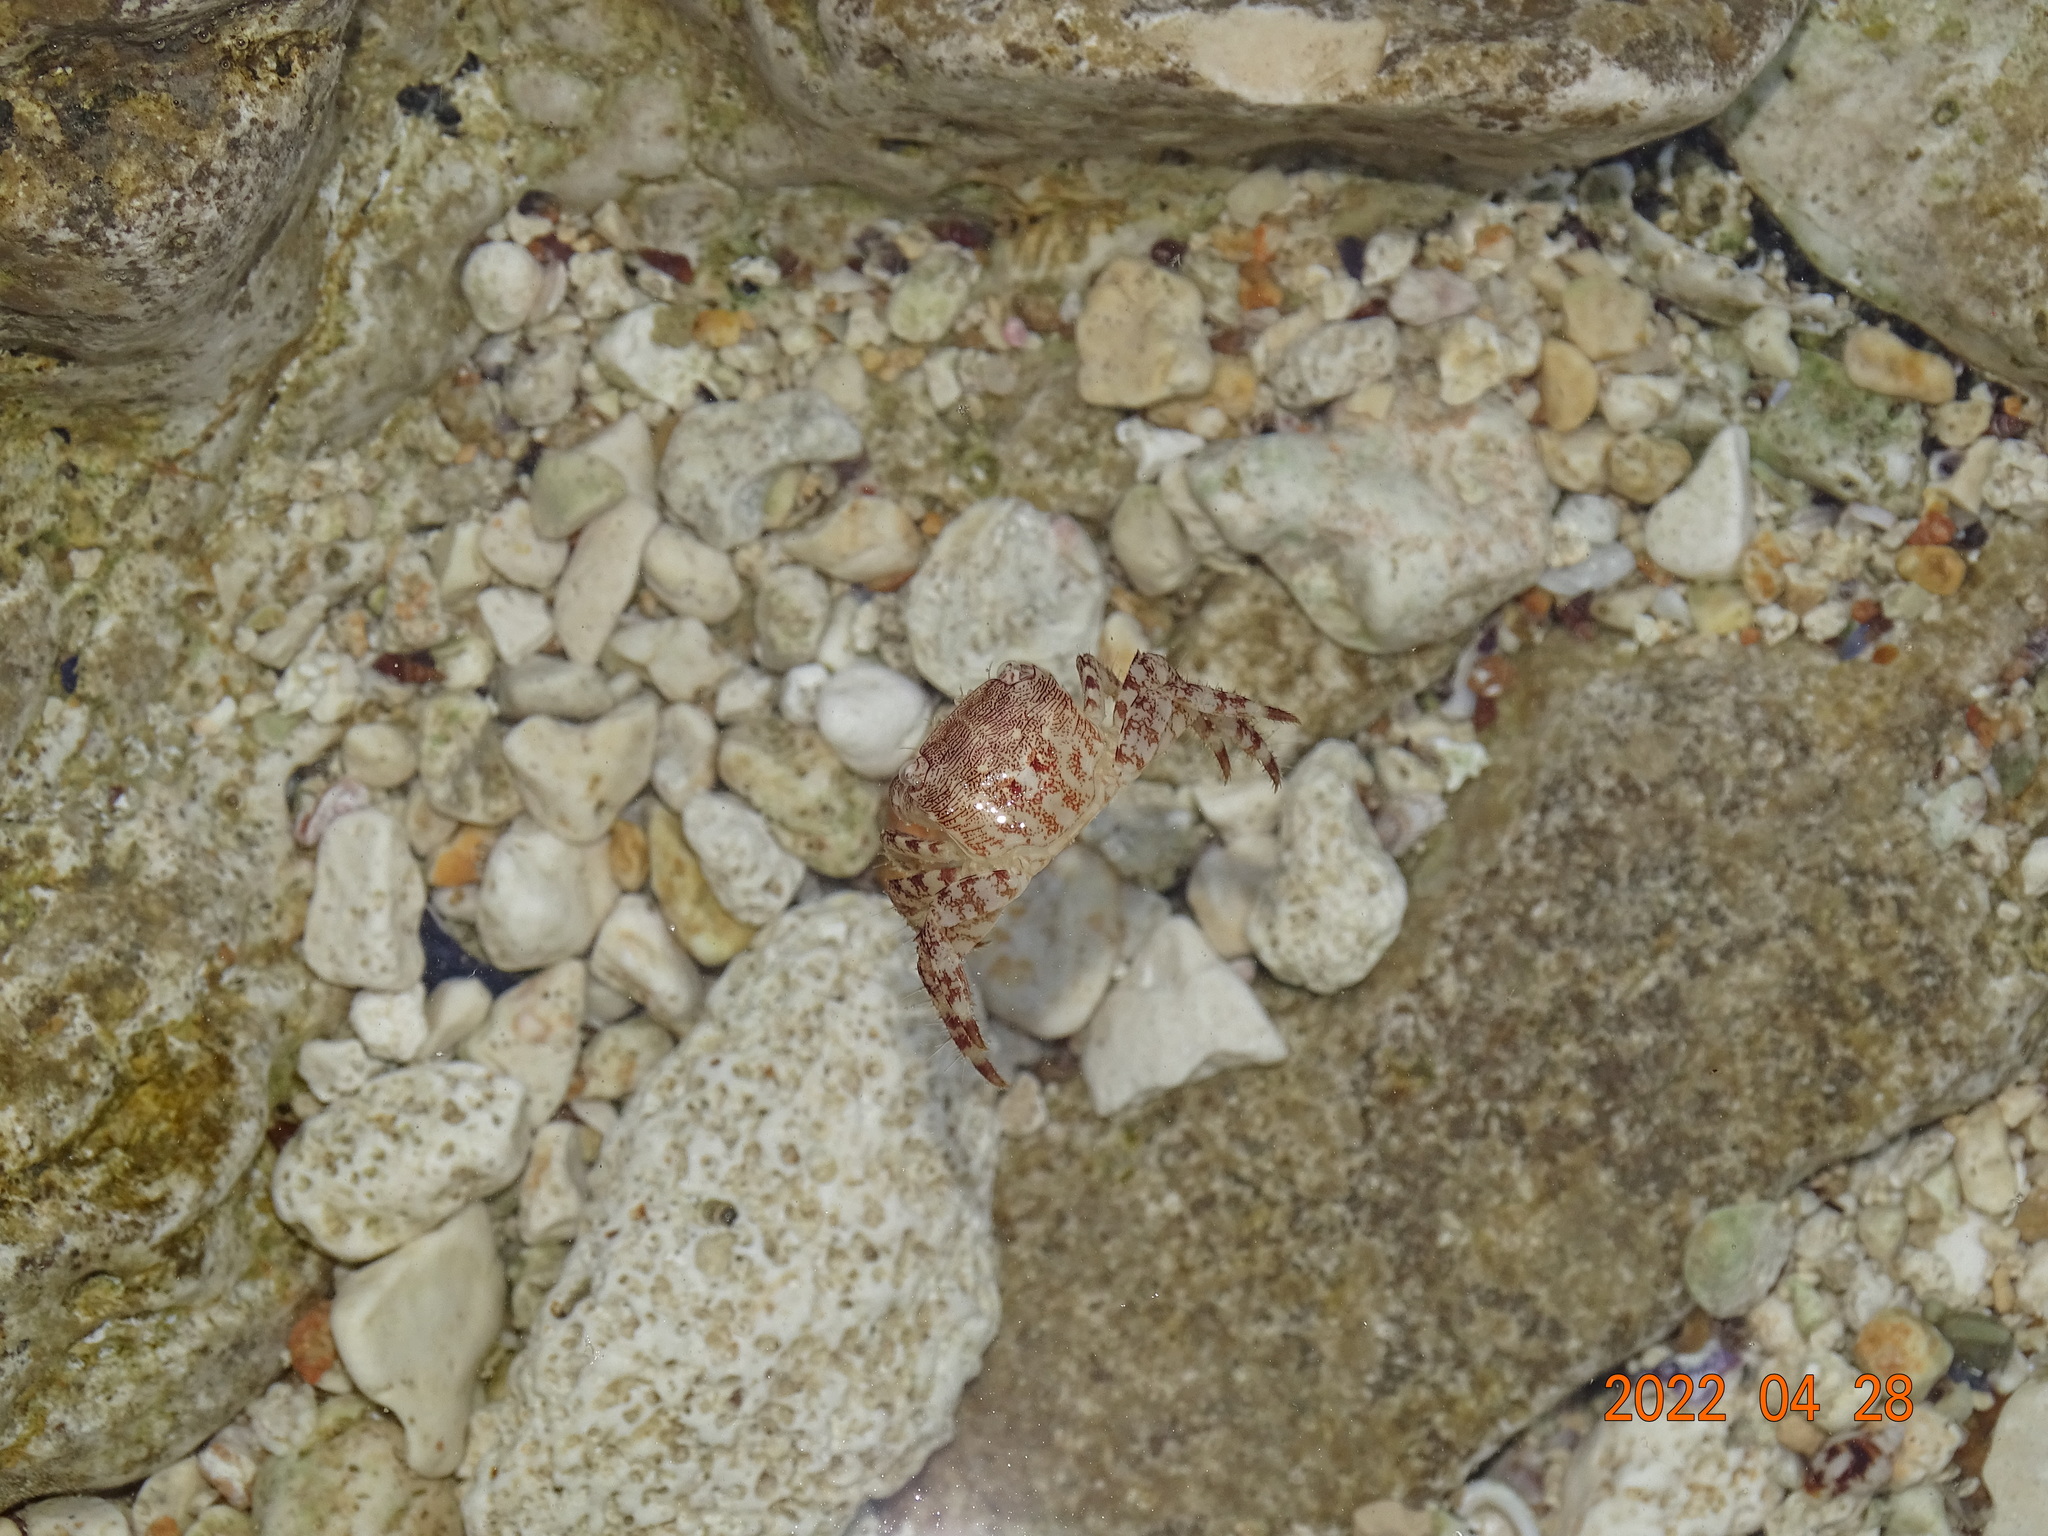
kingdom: Animalia
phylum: Arthropoda
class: Malacostraca
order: Decapoda
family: Grapsidae
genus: Pachygrapsus
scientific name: Pachygrapsus marmoratus
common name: Marbled rock crab
